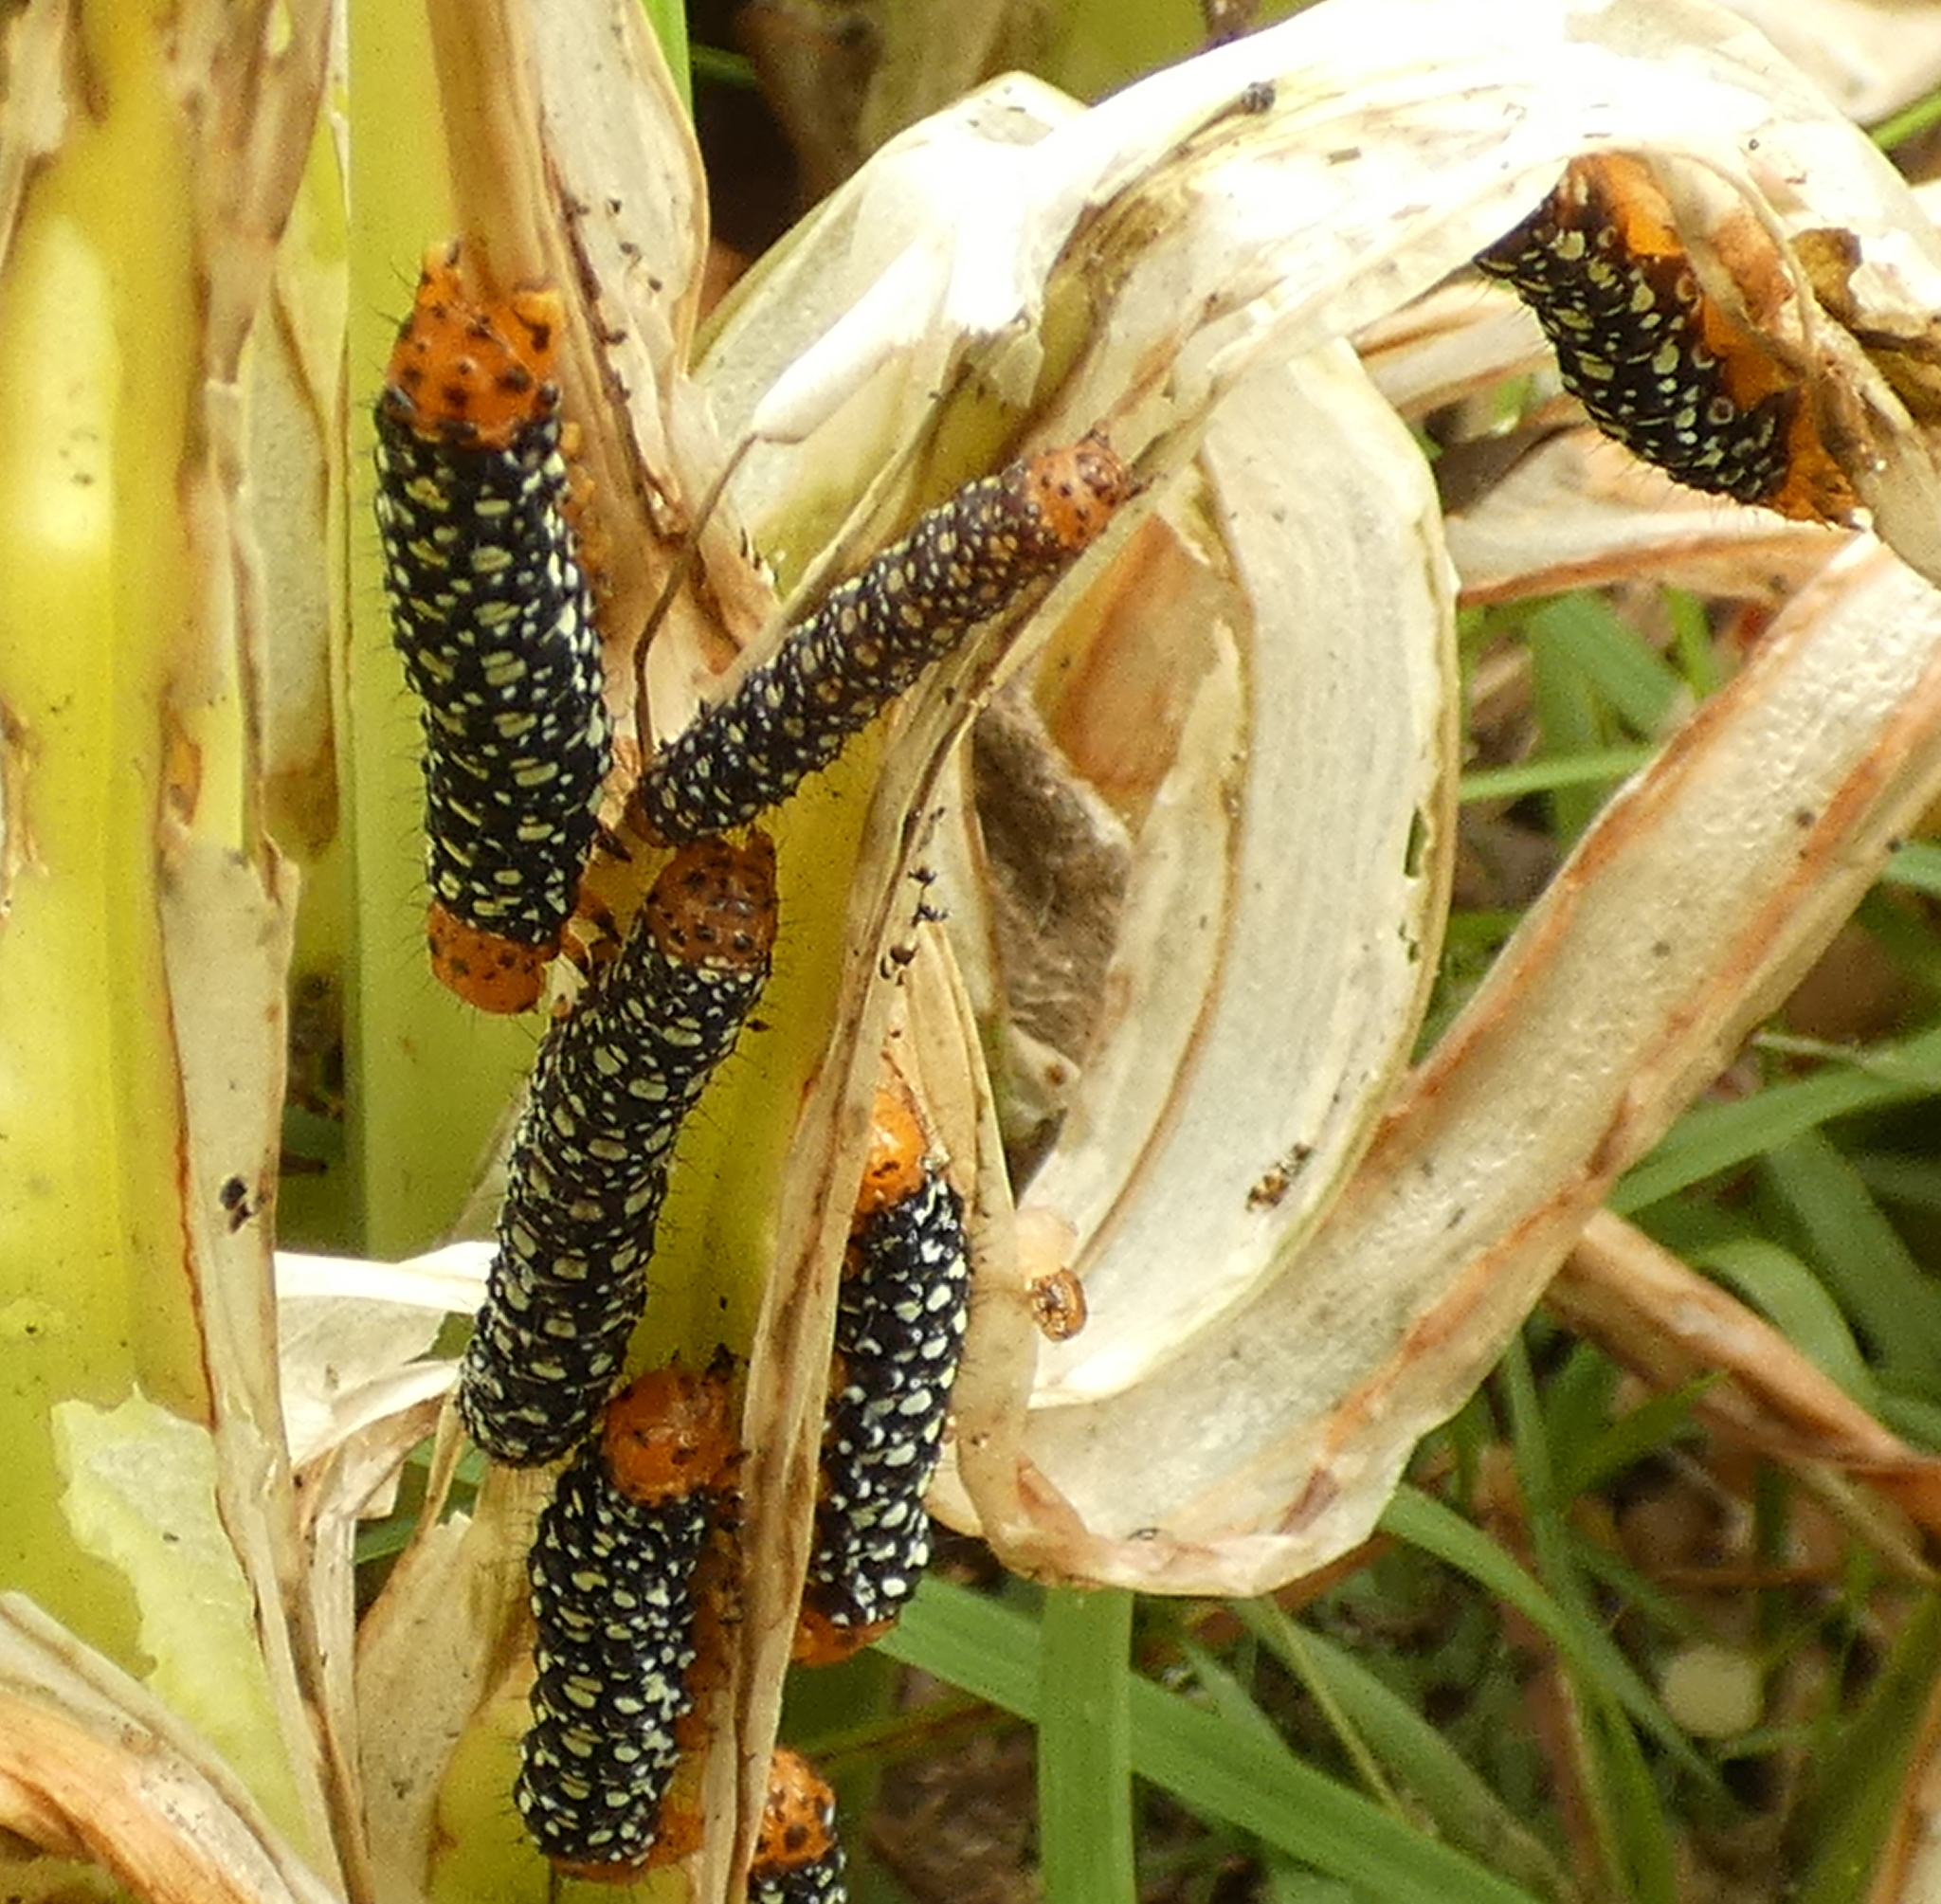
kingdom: Animalia
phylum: Arthropoda
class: Insecta
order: Lepidoptera
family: Noctuidae
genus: Xanthopastis
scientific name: Xanthopastis timais
